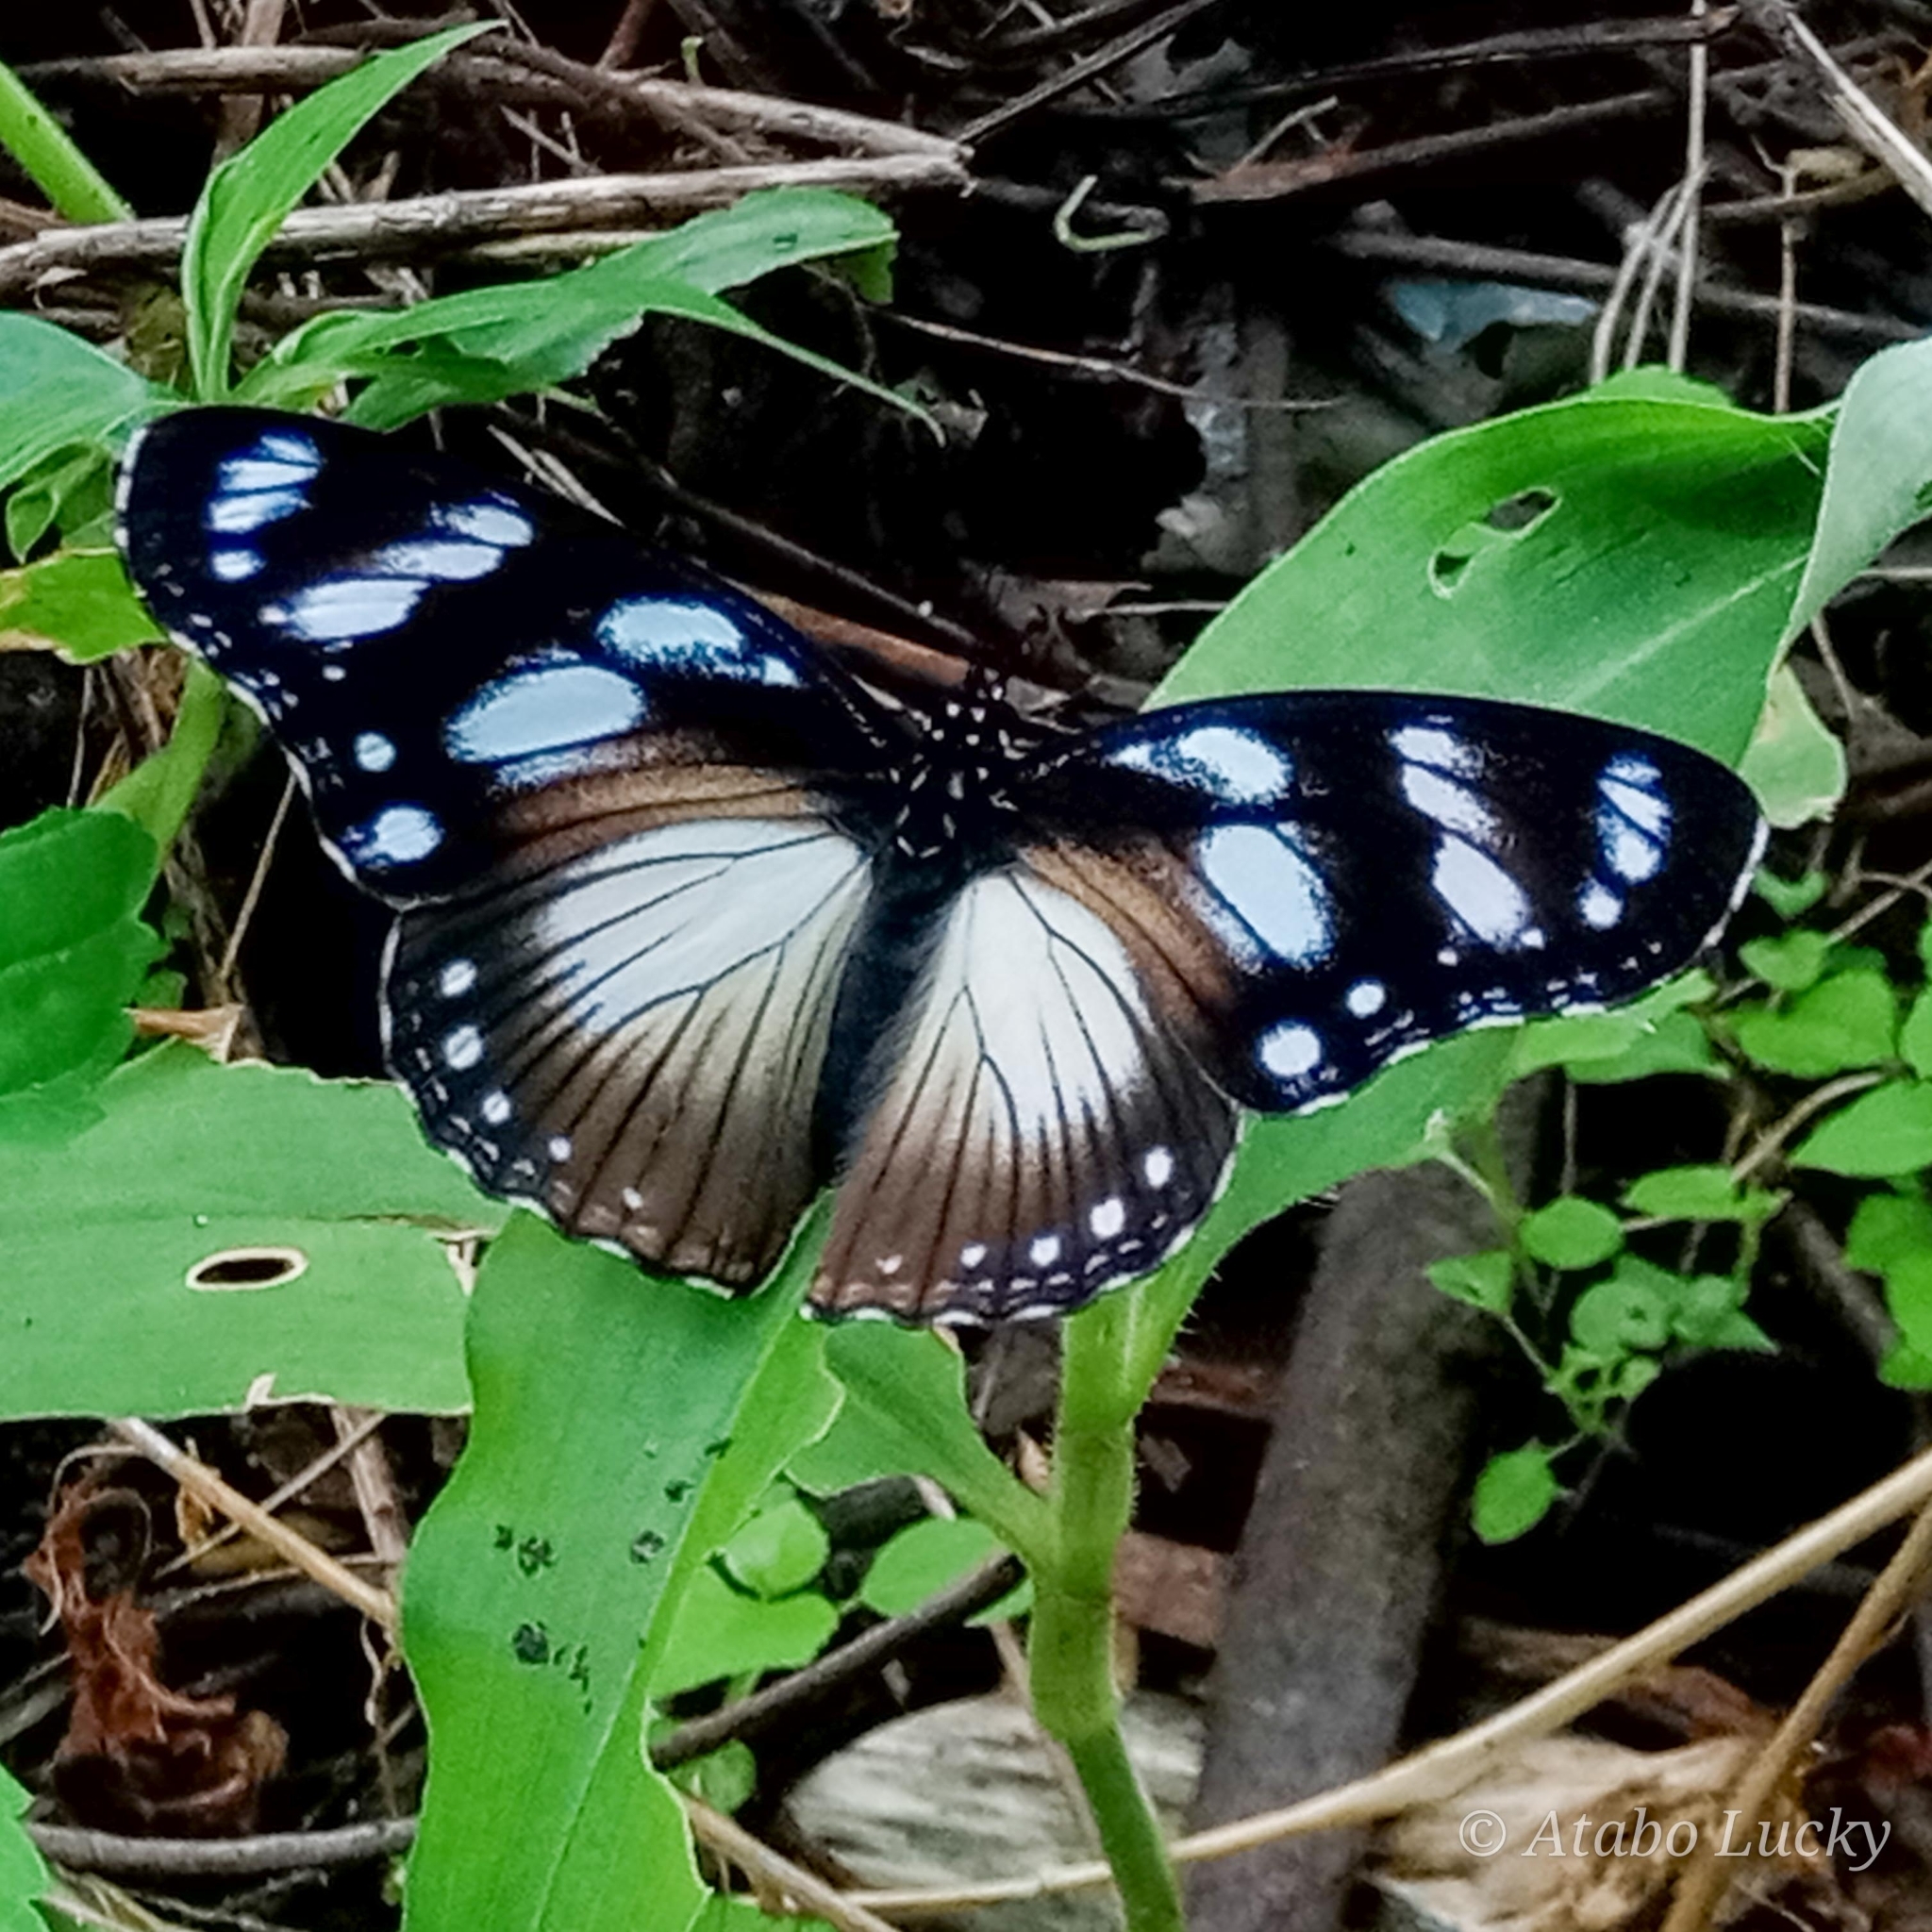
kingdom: Animalia
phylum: Arthropoda
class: Insecta
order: Lepidoptera
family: Nymphalidae
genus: Hypolimnas
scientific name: Hypolimnas dubius
